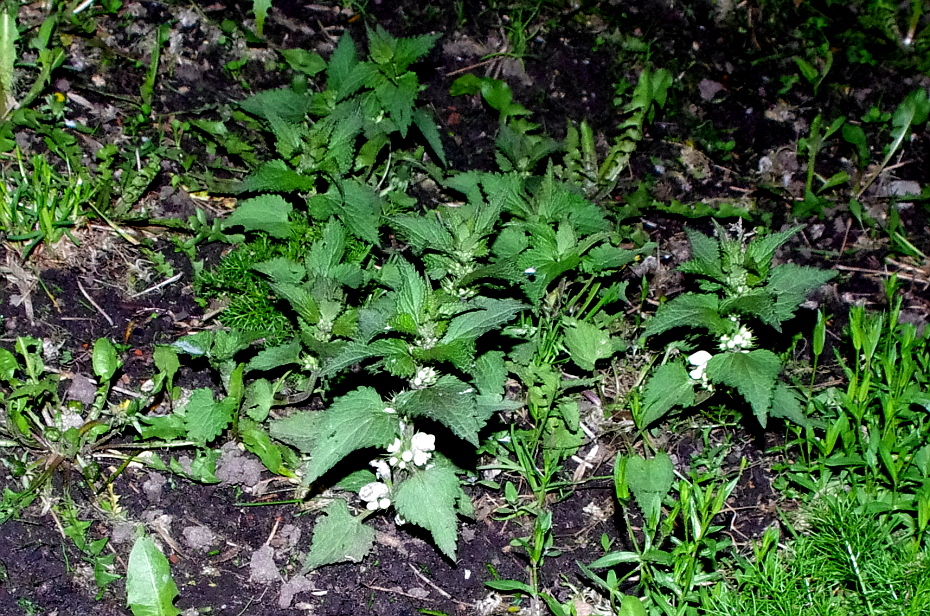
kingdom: Plantae
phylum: Tracheophyta
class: Magnoliopsida
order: Lamiales
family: Lamiaceae
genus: Lamium
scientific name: Lamium album
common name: White dead-nettle
